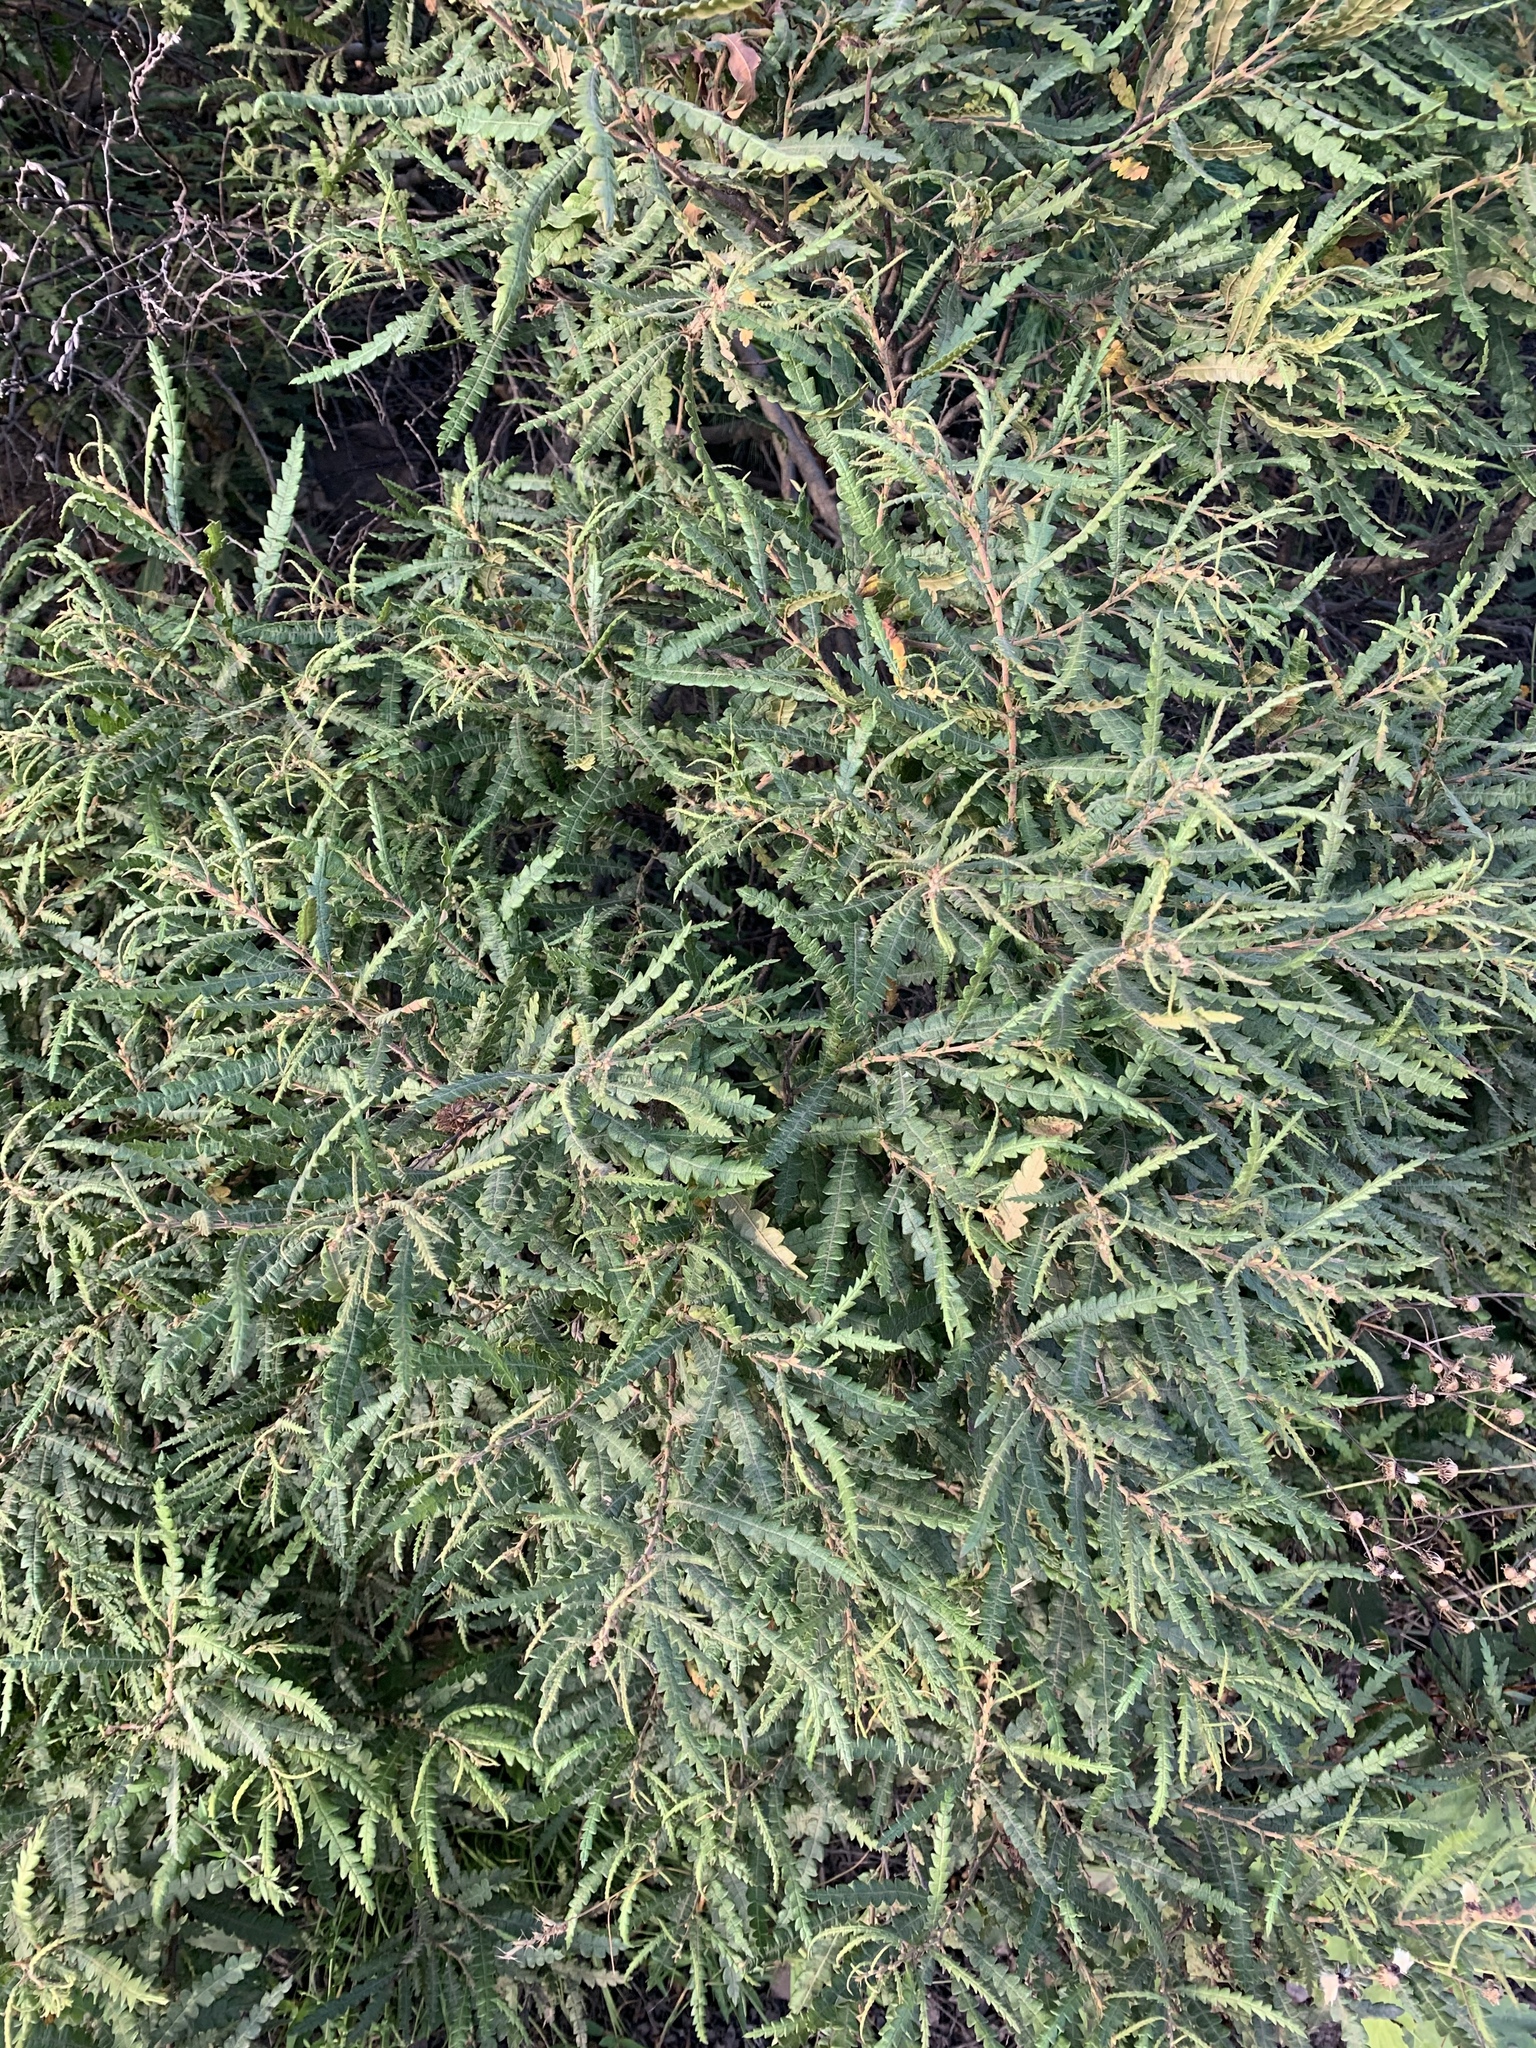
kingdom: Plantae
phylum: Tracheophyta
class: Magnoliopsida
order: Fagales
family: Myricaceae
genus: Comptonia
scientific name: Comptonia peregrina
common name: Sweet-fern
